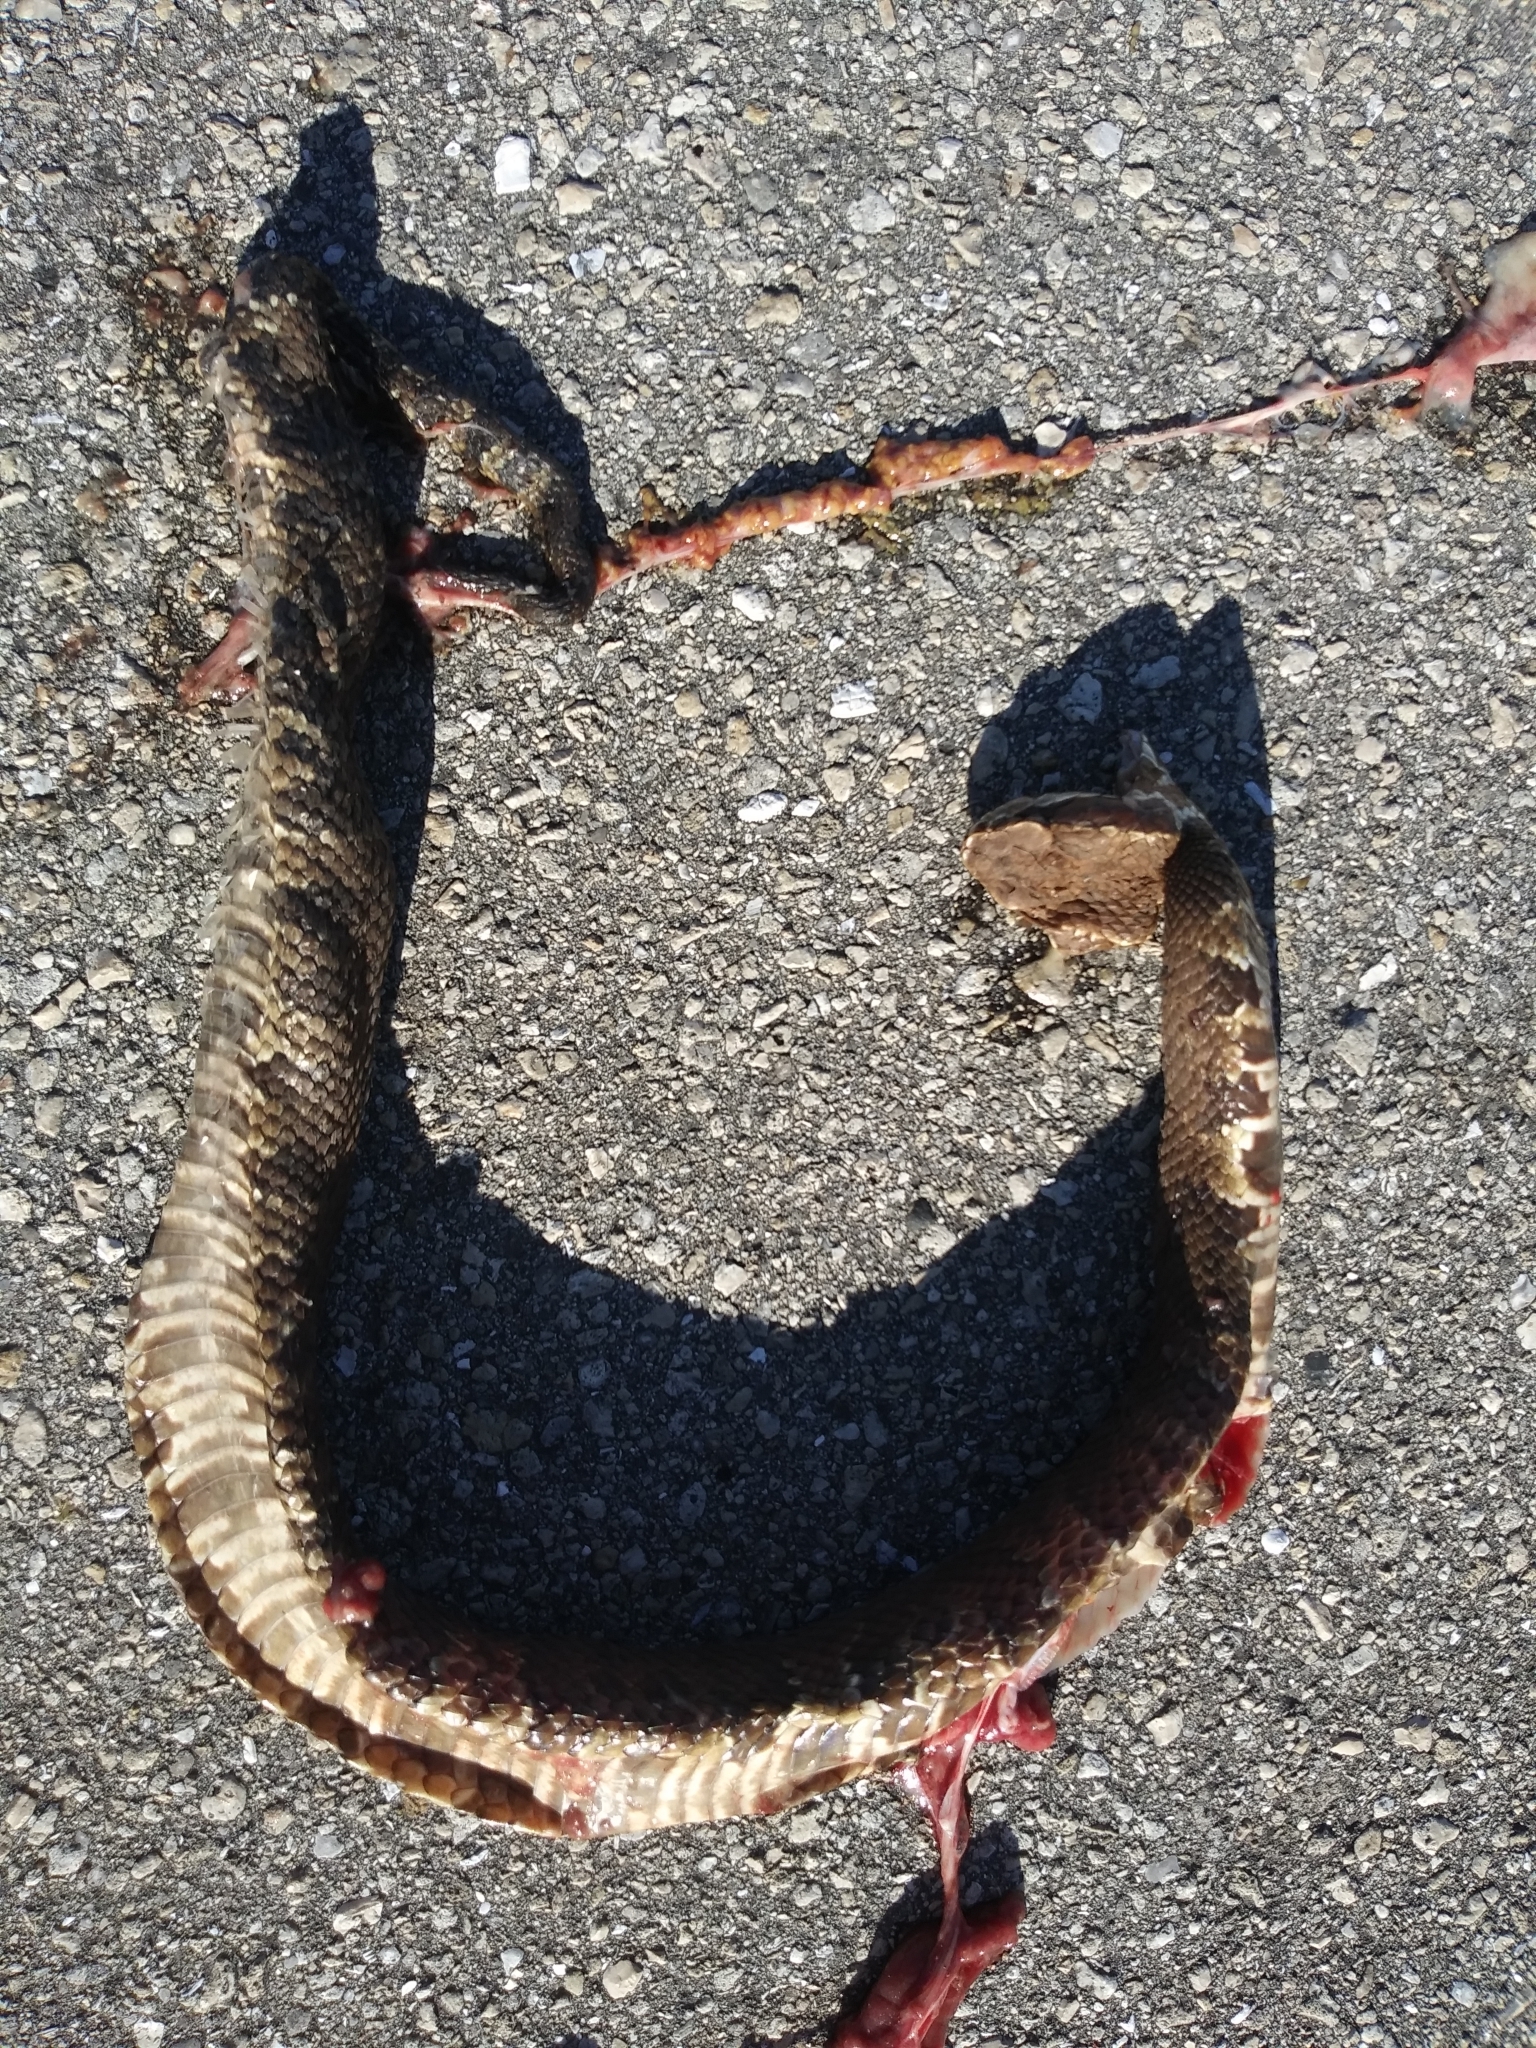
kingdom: Animalia
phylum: Chordata
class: Squamata
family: Viperidae
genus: Agkistrodon
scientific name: Agkistrodon conanti
